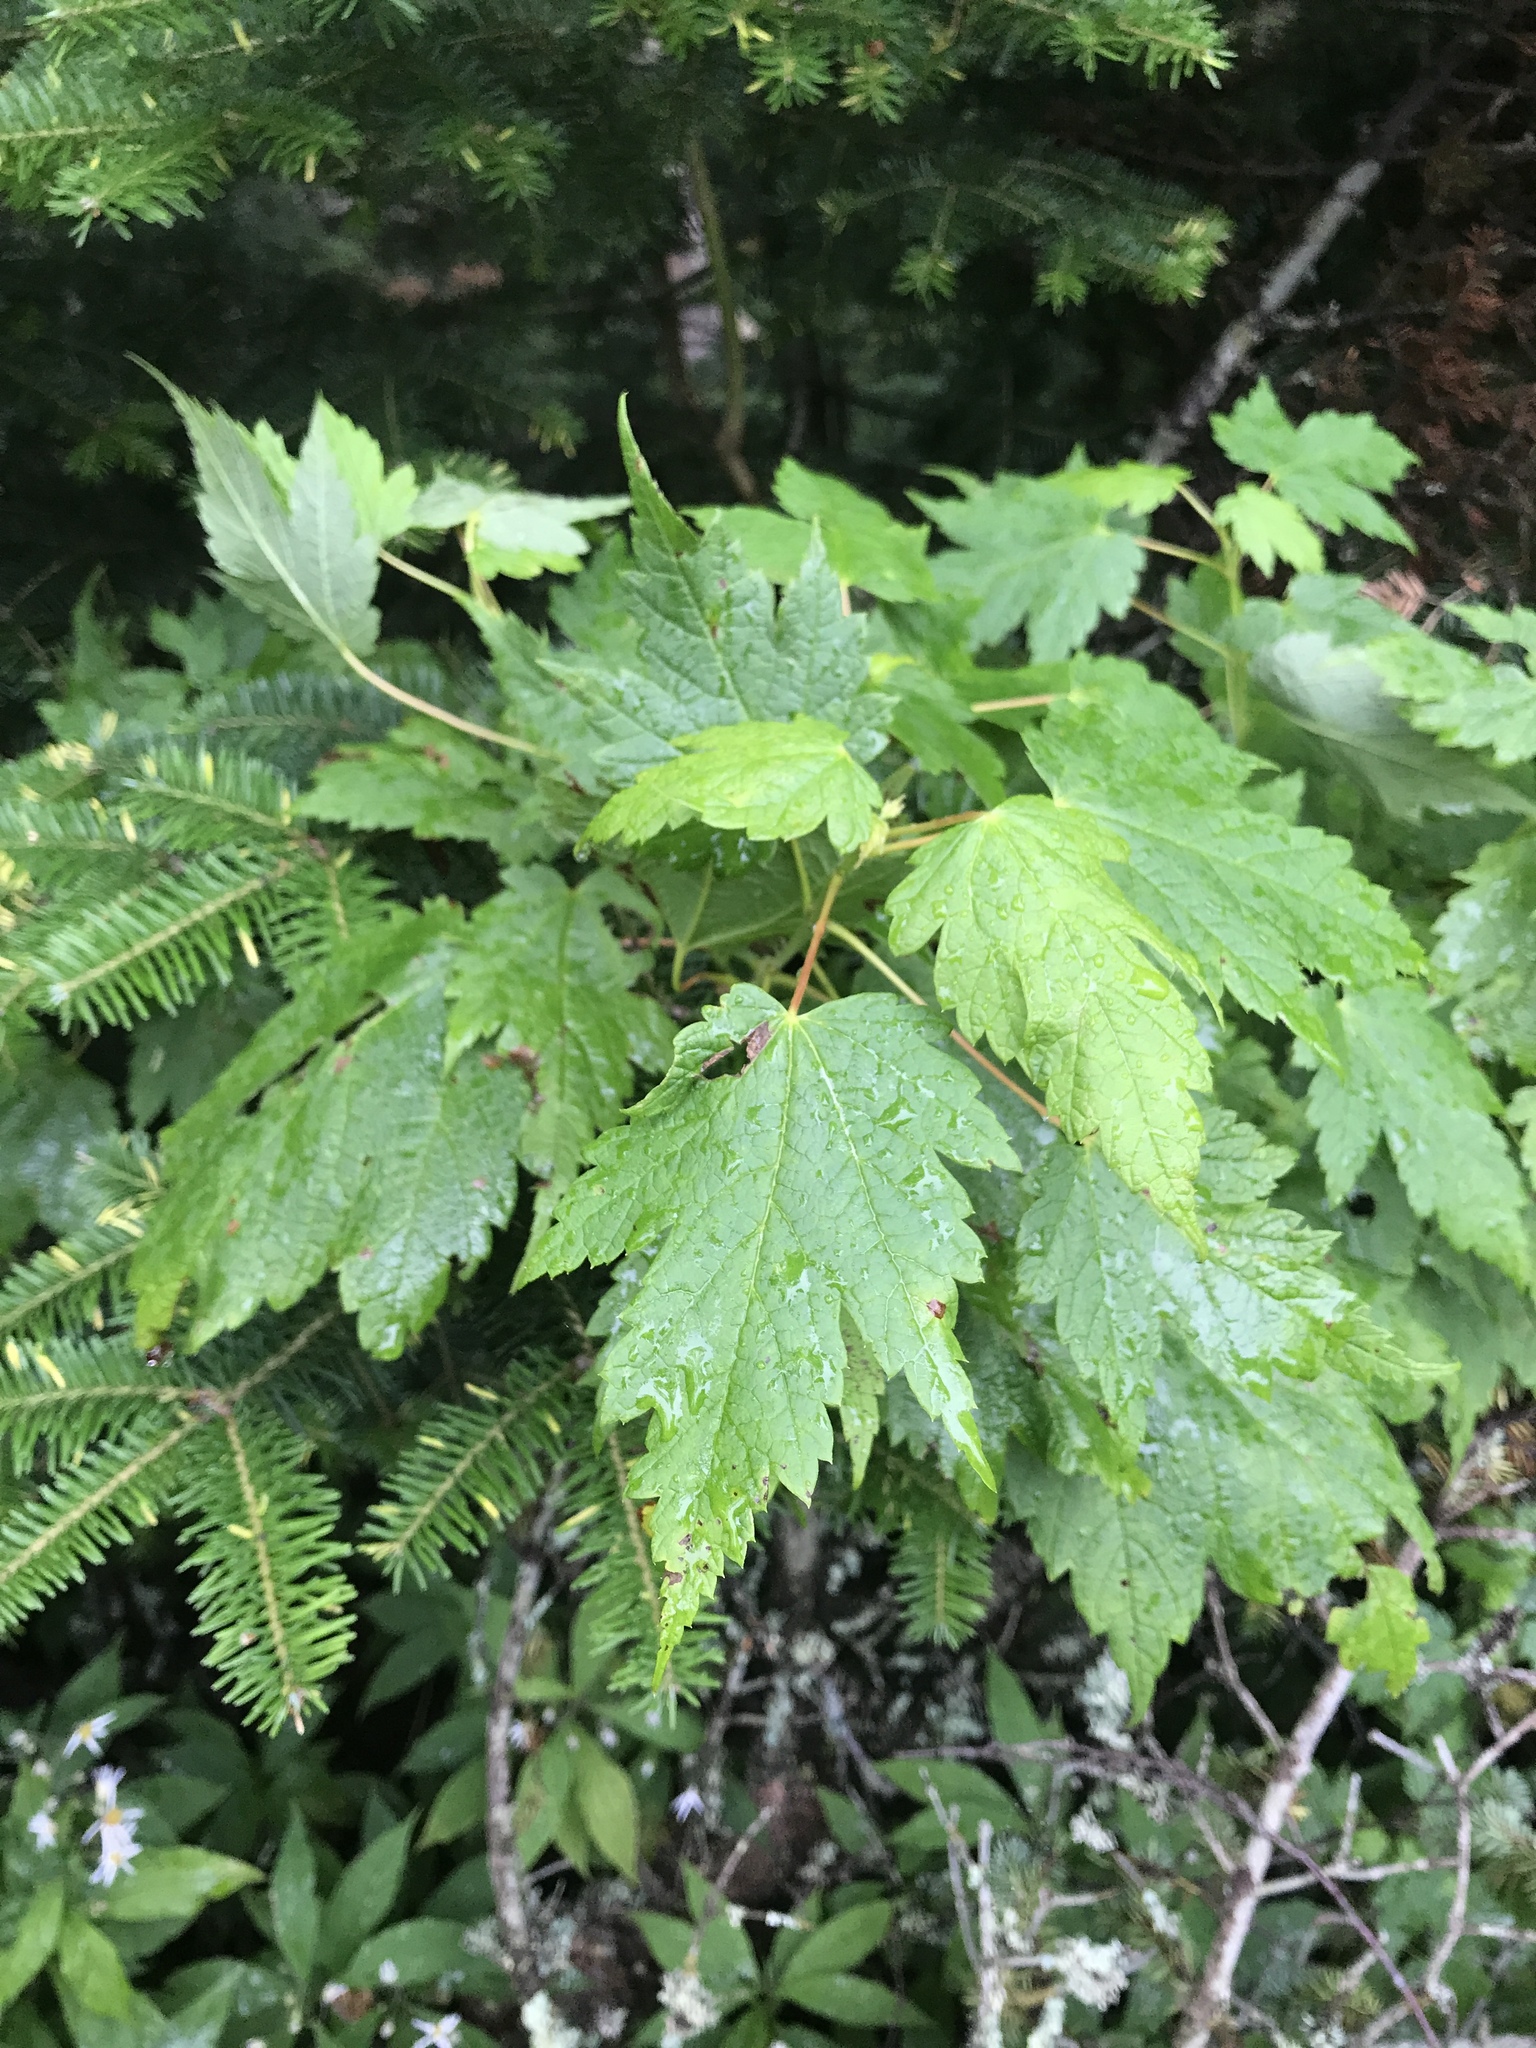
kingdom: Plantae
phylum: Tracheophyta
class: Magnoliopsida
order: Sapindales
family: Sapindaceae
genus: Acer
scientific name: Acer spicatum
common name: Mountain maple
